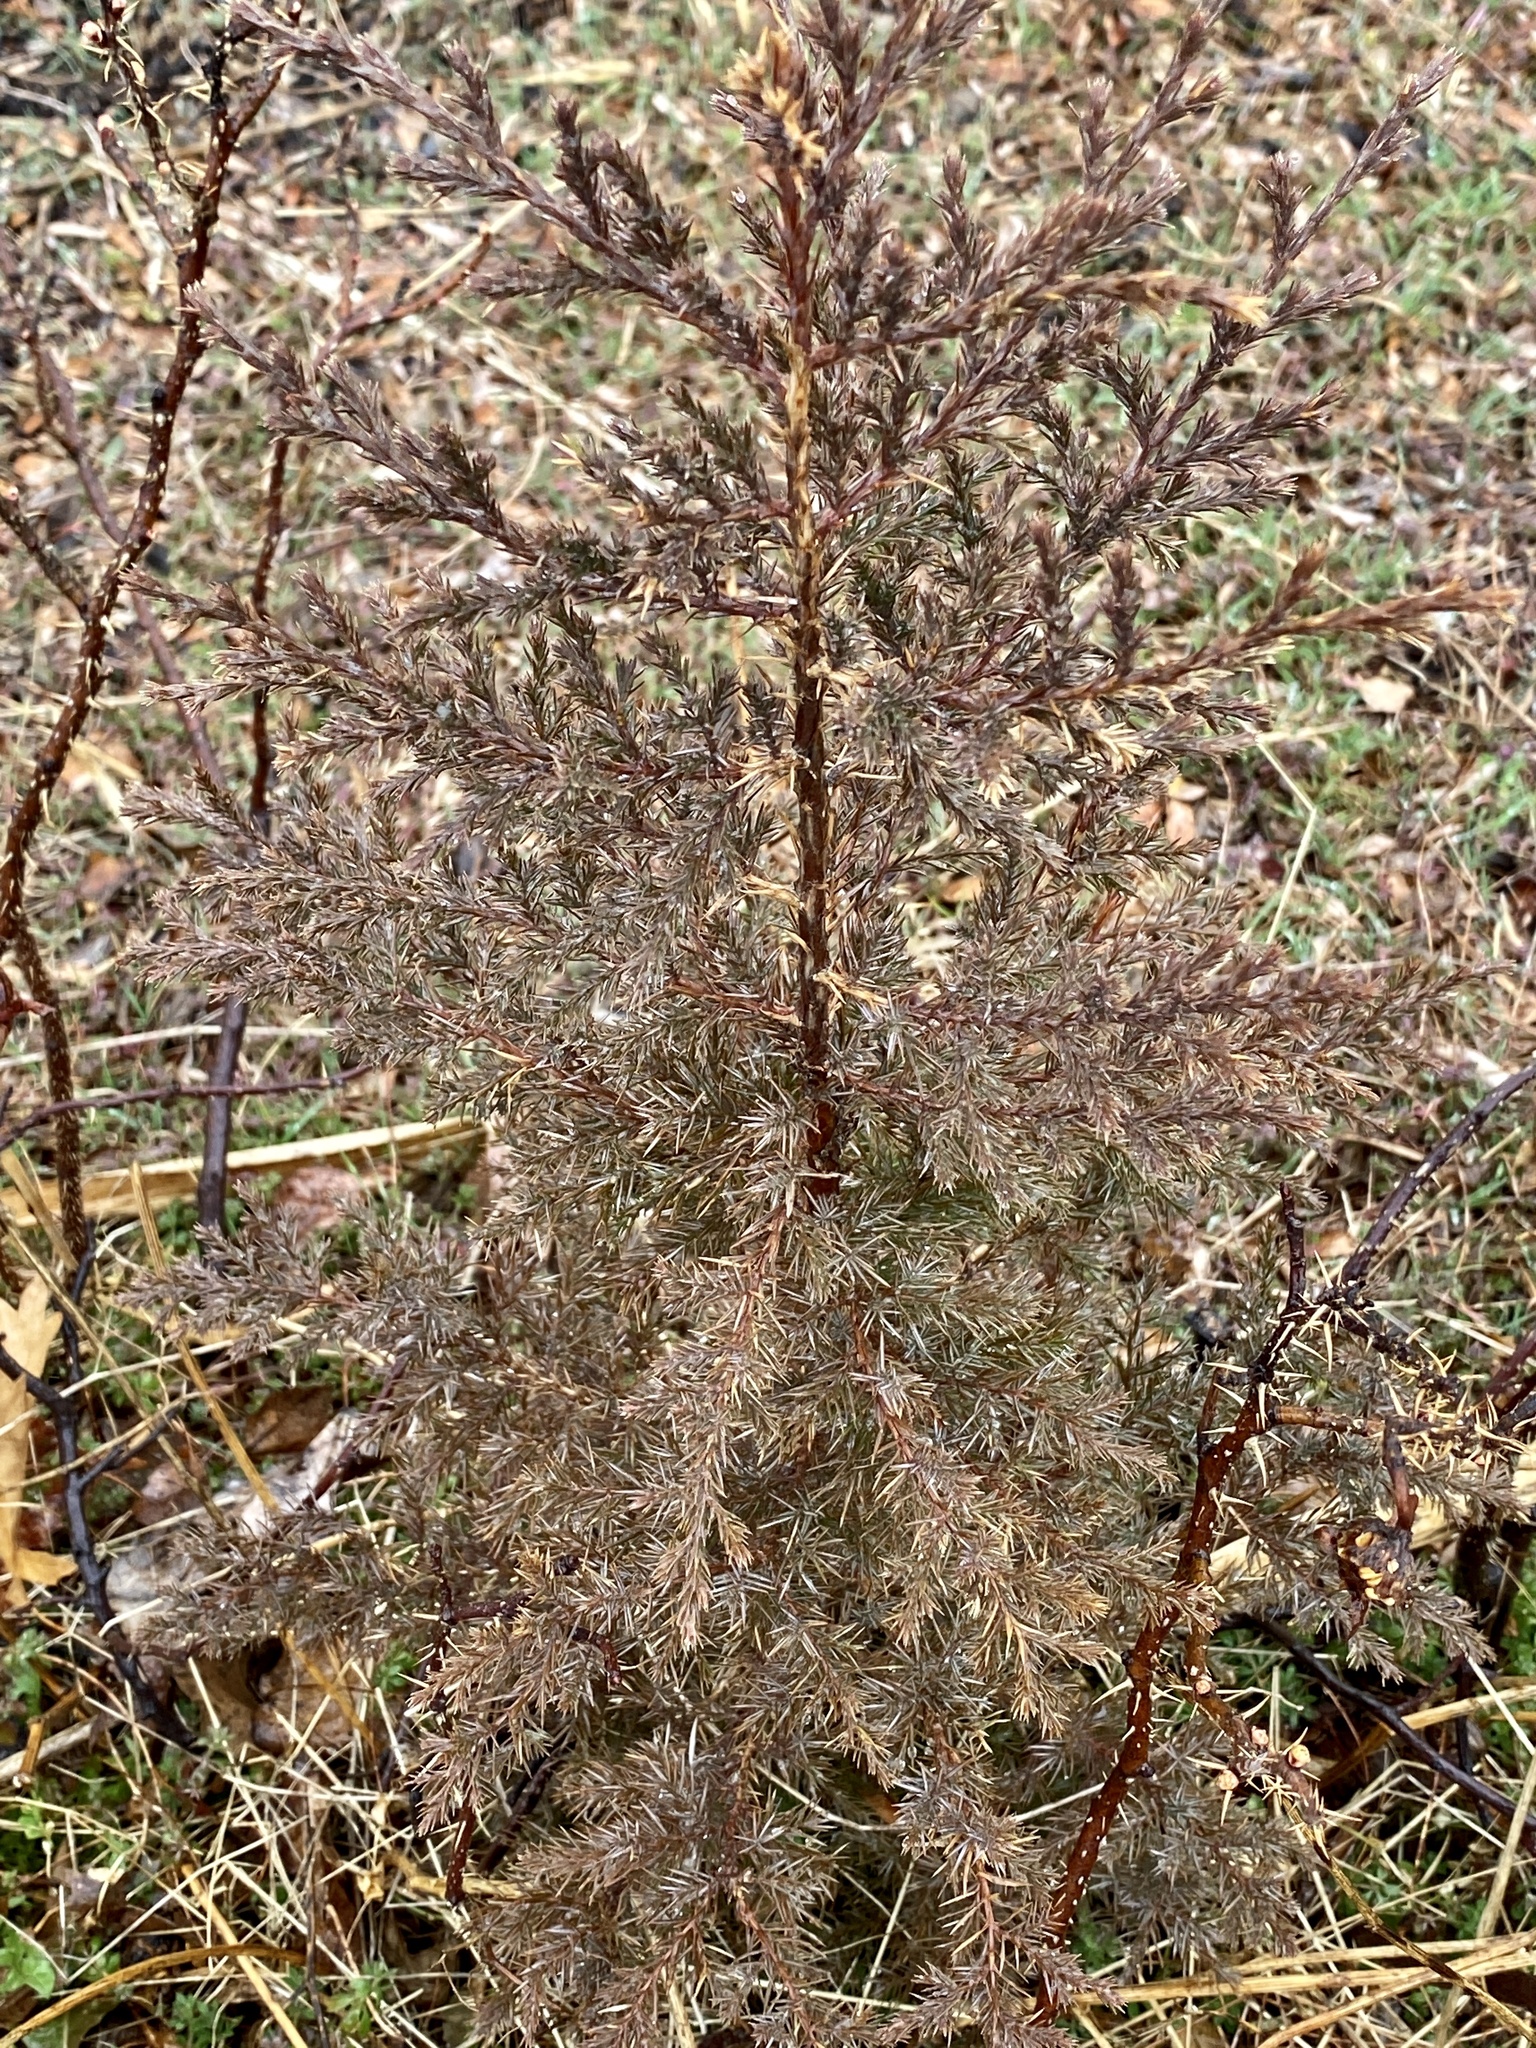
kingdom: Plantae
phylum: Tracheophyta
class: Pinopsida
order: Pinales
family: Cupressaceae
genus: Juniperus
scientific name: Juniperus virginiana
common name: Red juniper
